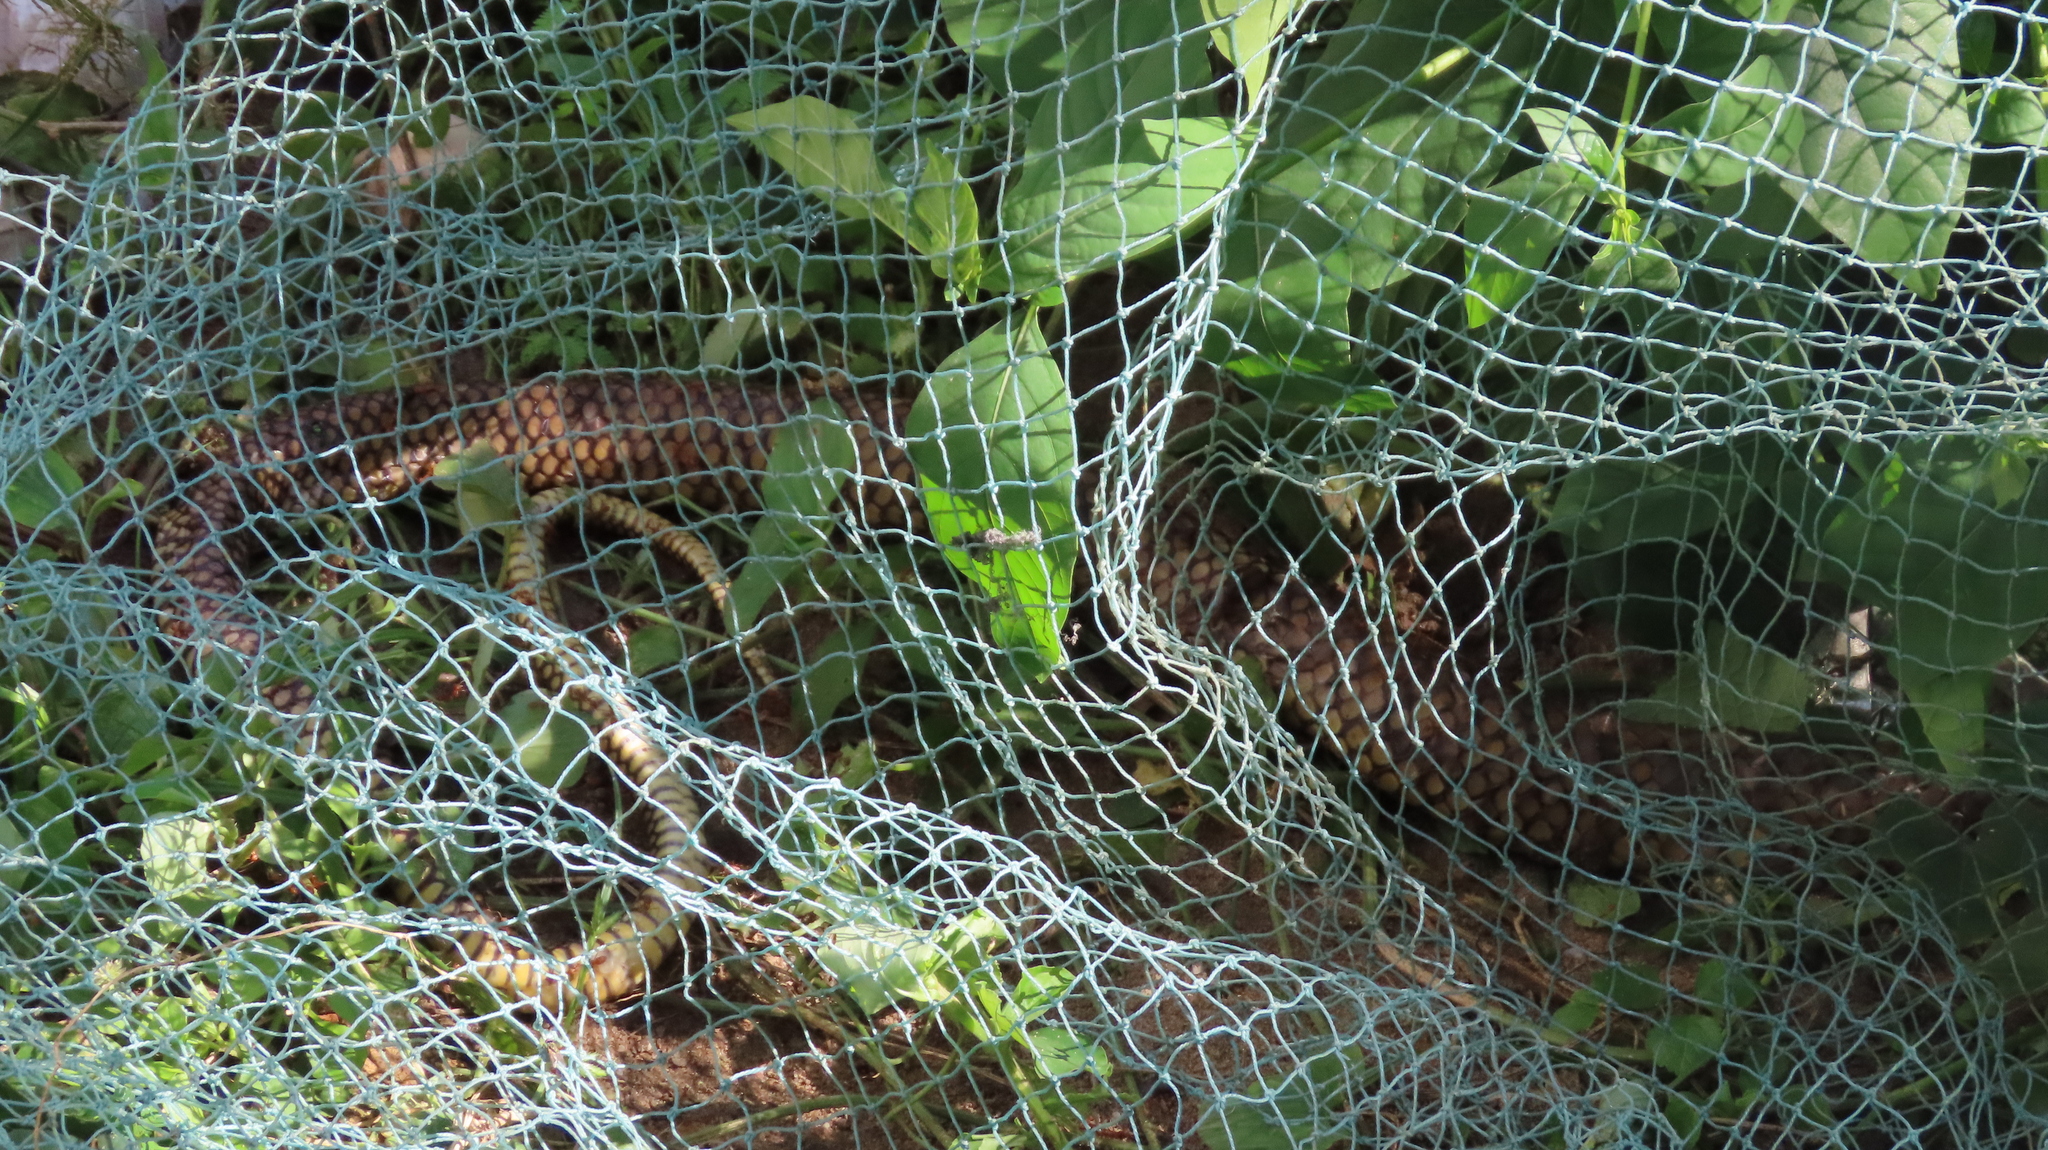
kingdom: Animalia
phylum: Chordata
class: Squamata
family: Colubridae
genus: Ptyas
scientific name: Ptyas mucosa
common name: Oriental ratsnake
